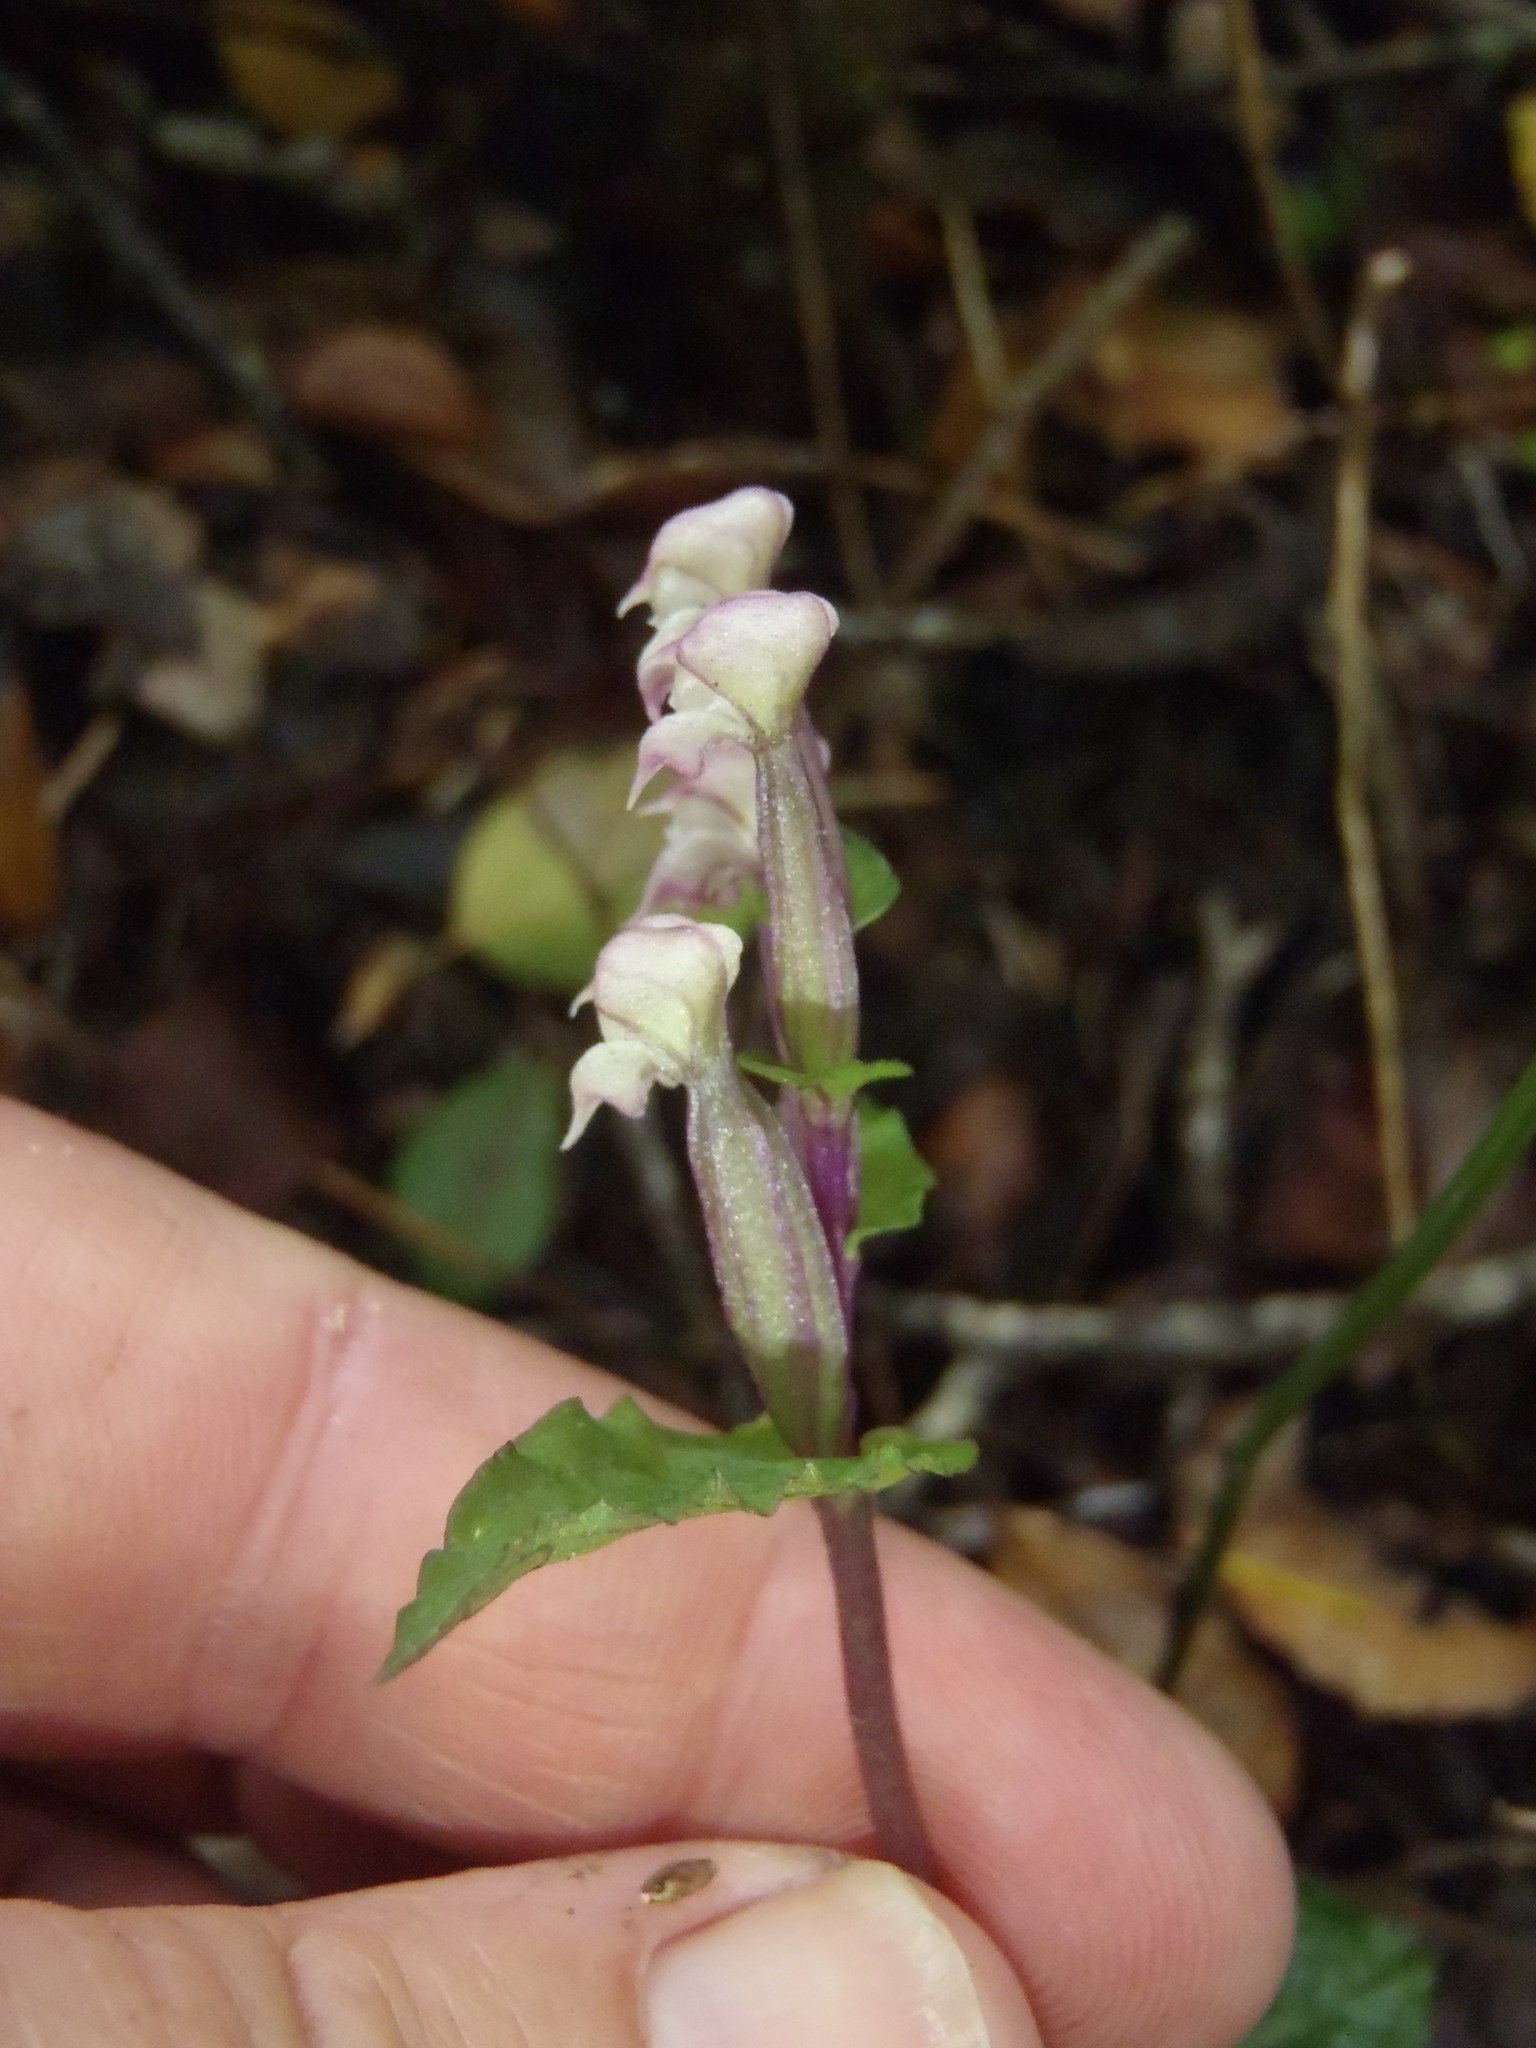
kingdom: Plantae
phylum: Tracheophyta
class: Liliopsida
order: Asparagales
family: Orchidaceae
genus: Disperis
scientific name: Disperis micrantha
